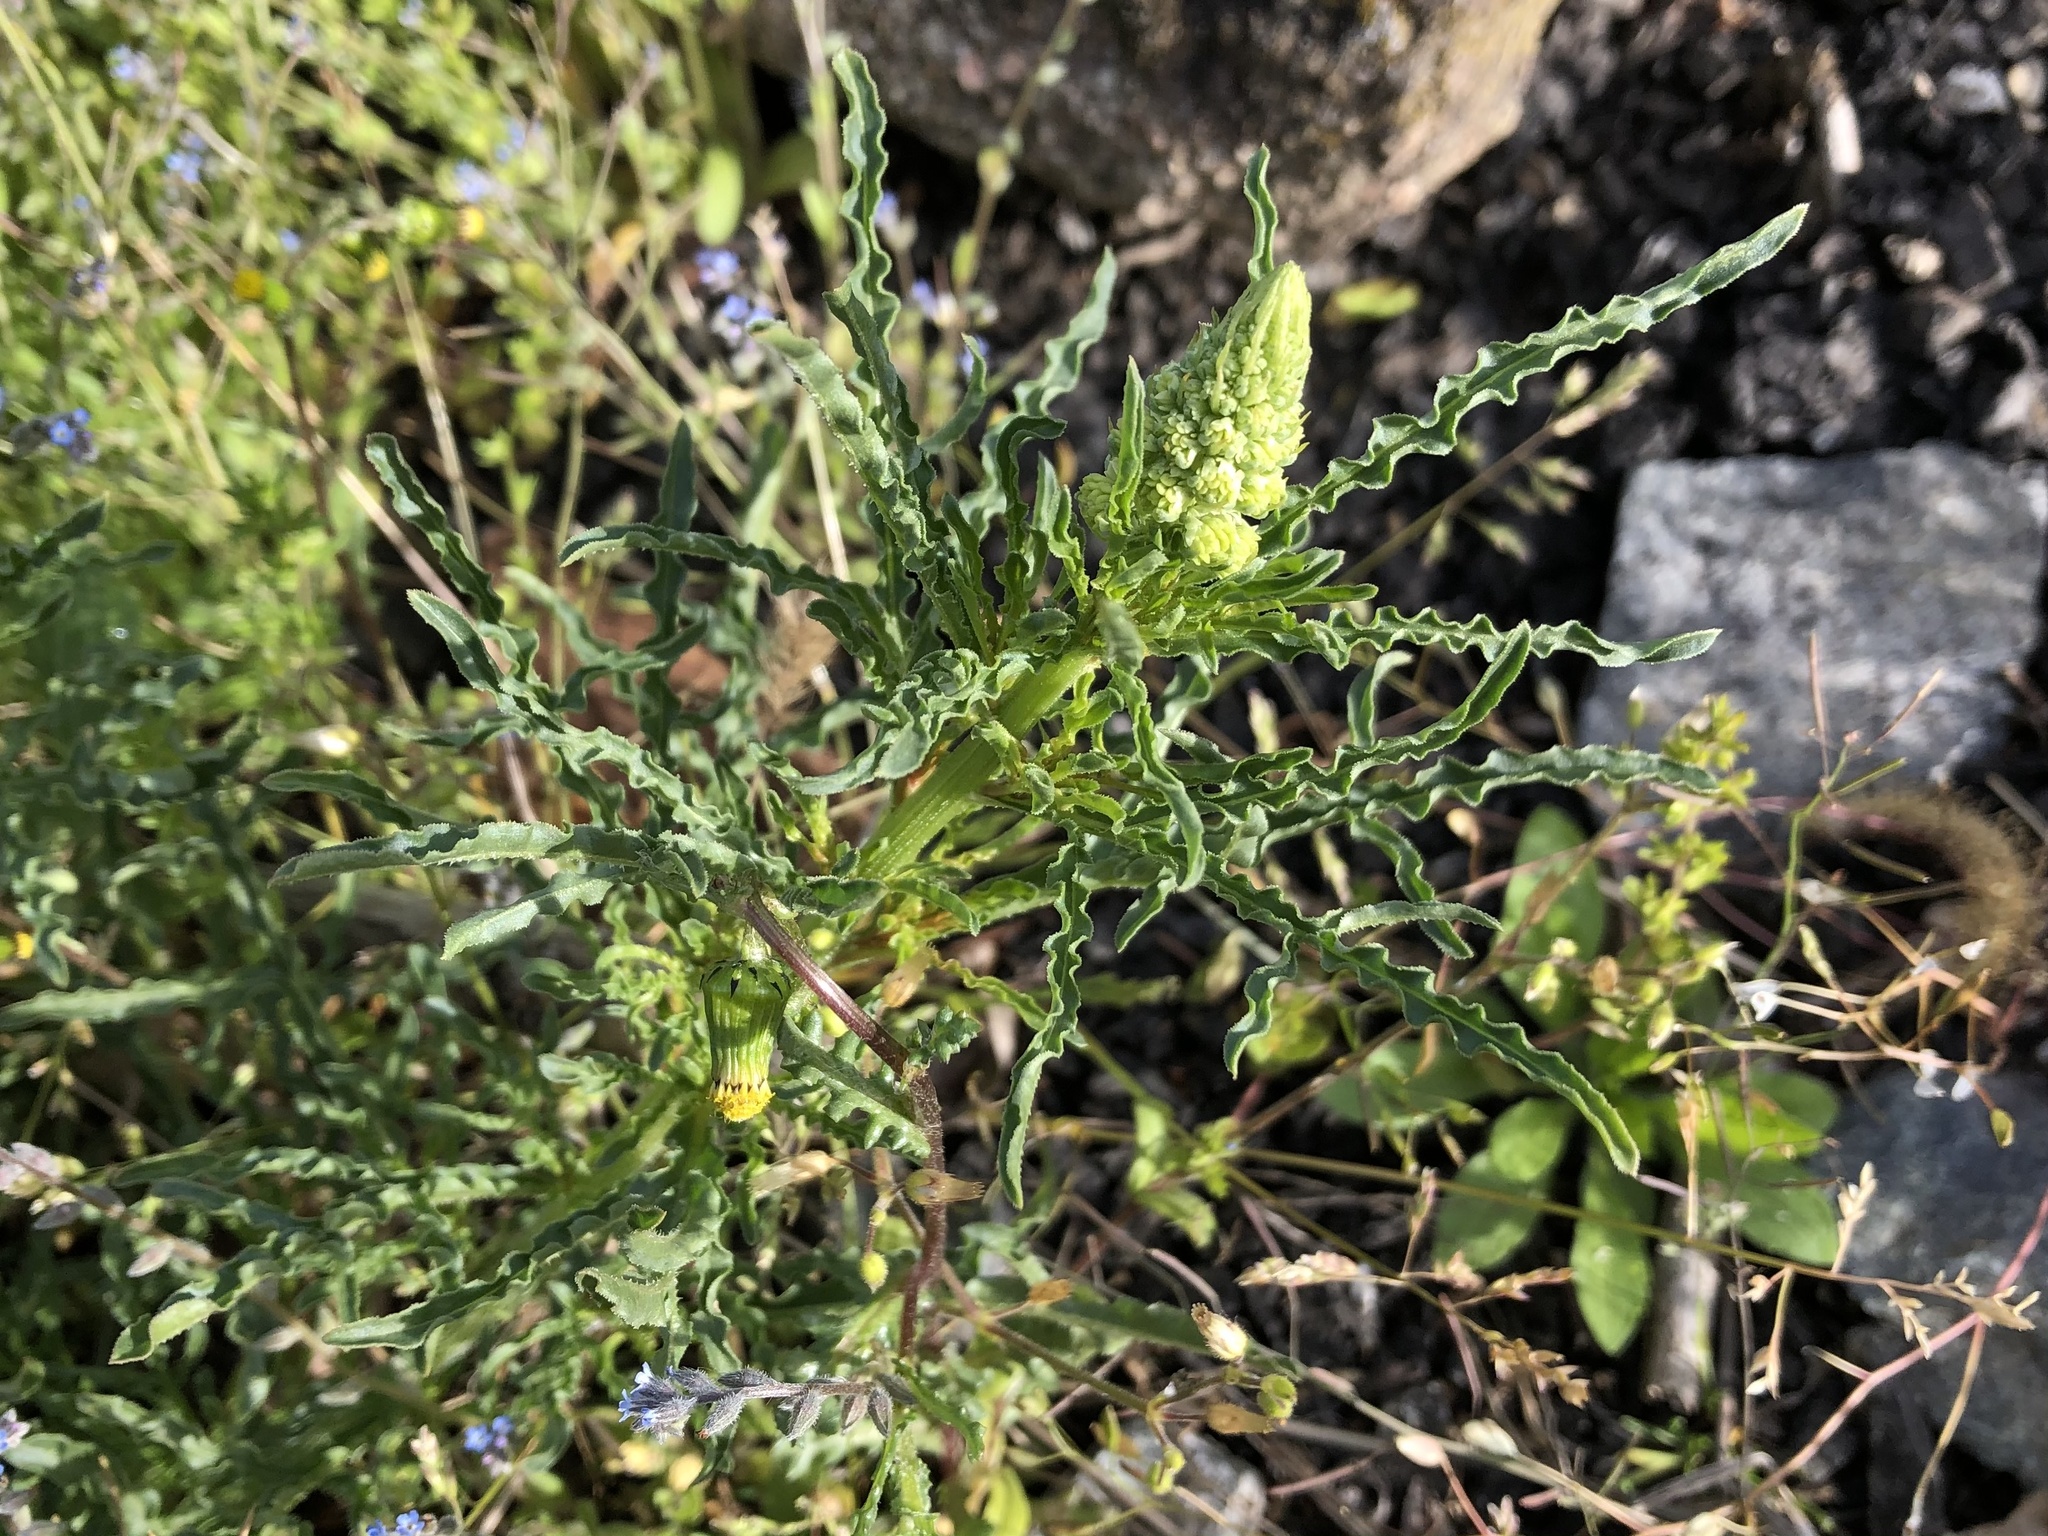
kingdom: Plantae
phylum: Tracheophyta
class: Magnoliopsida
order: Brassicales
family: Resedaceae
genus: Reseda
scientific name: Reseda lutea
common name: Wild mignonette
